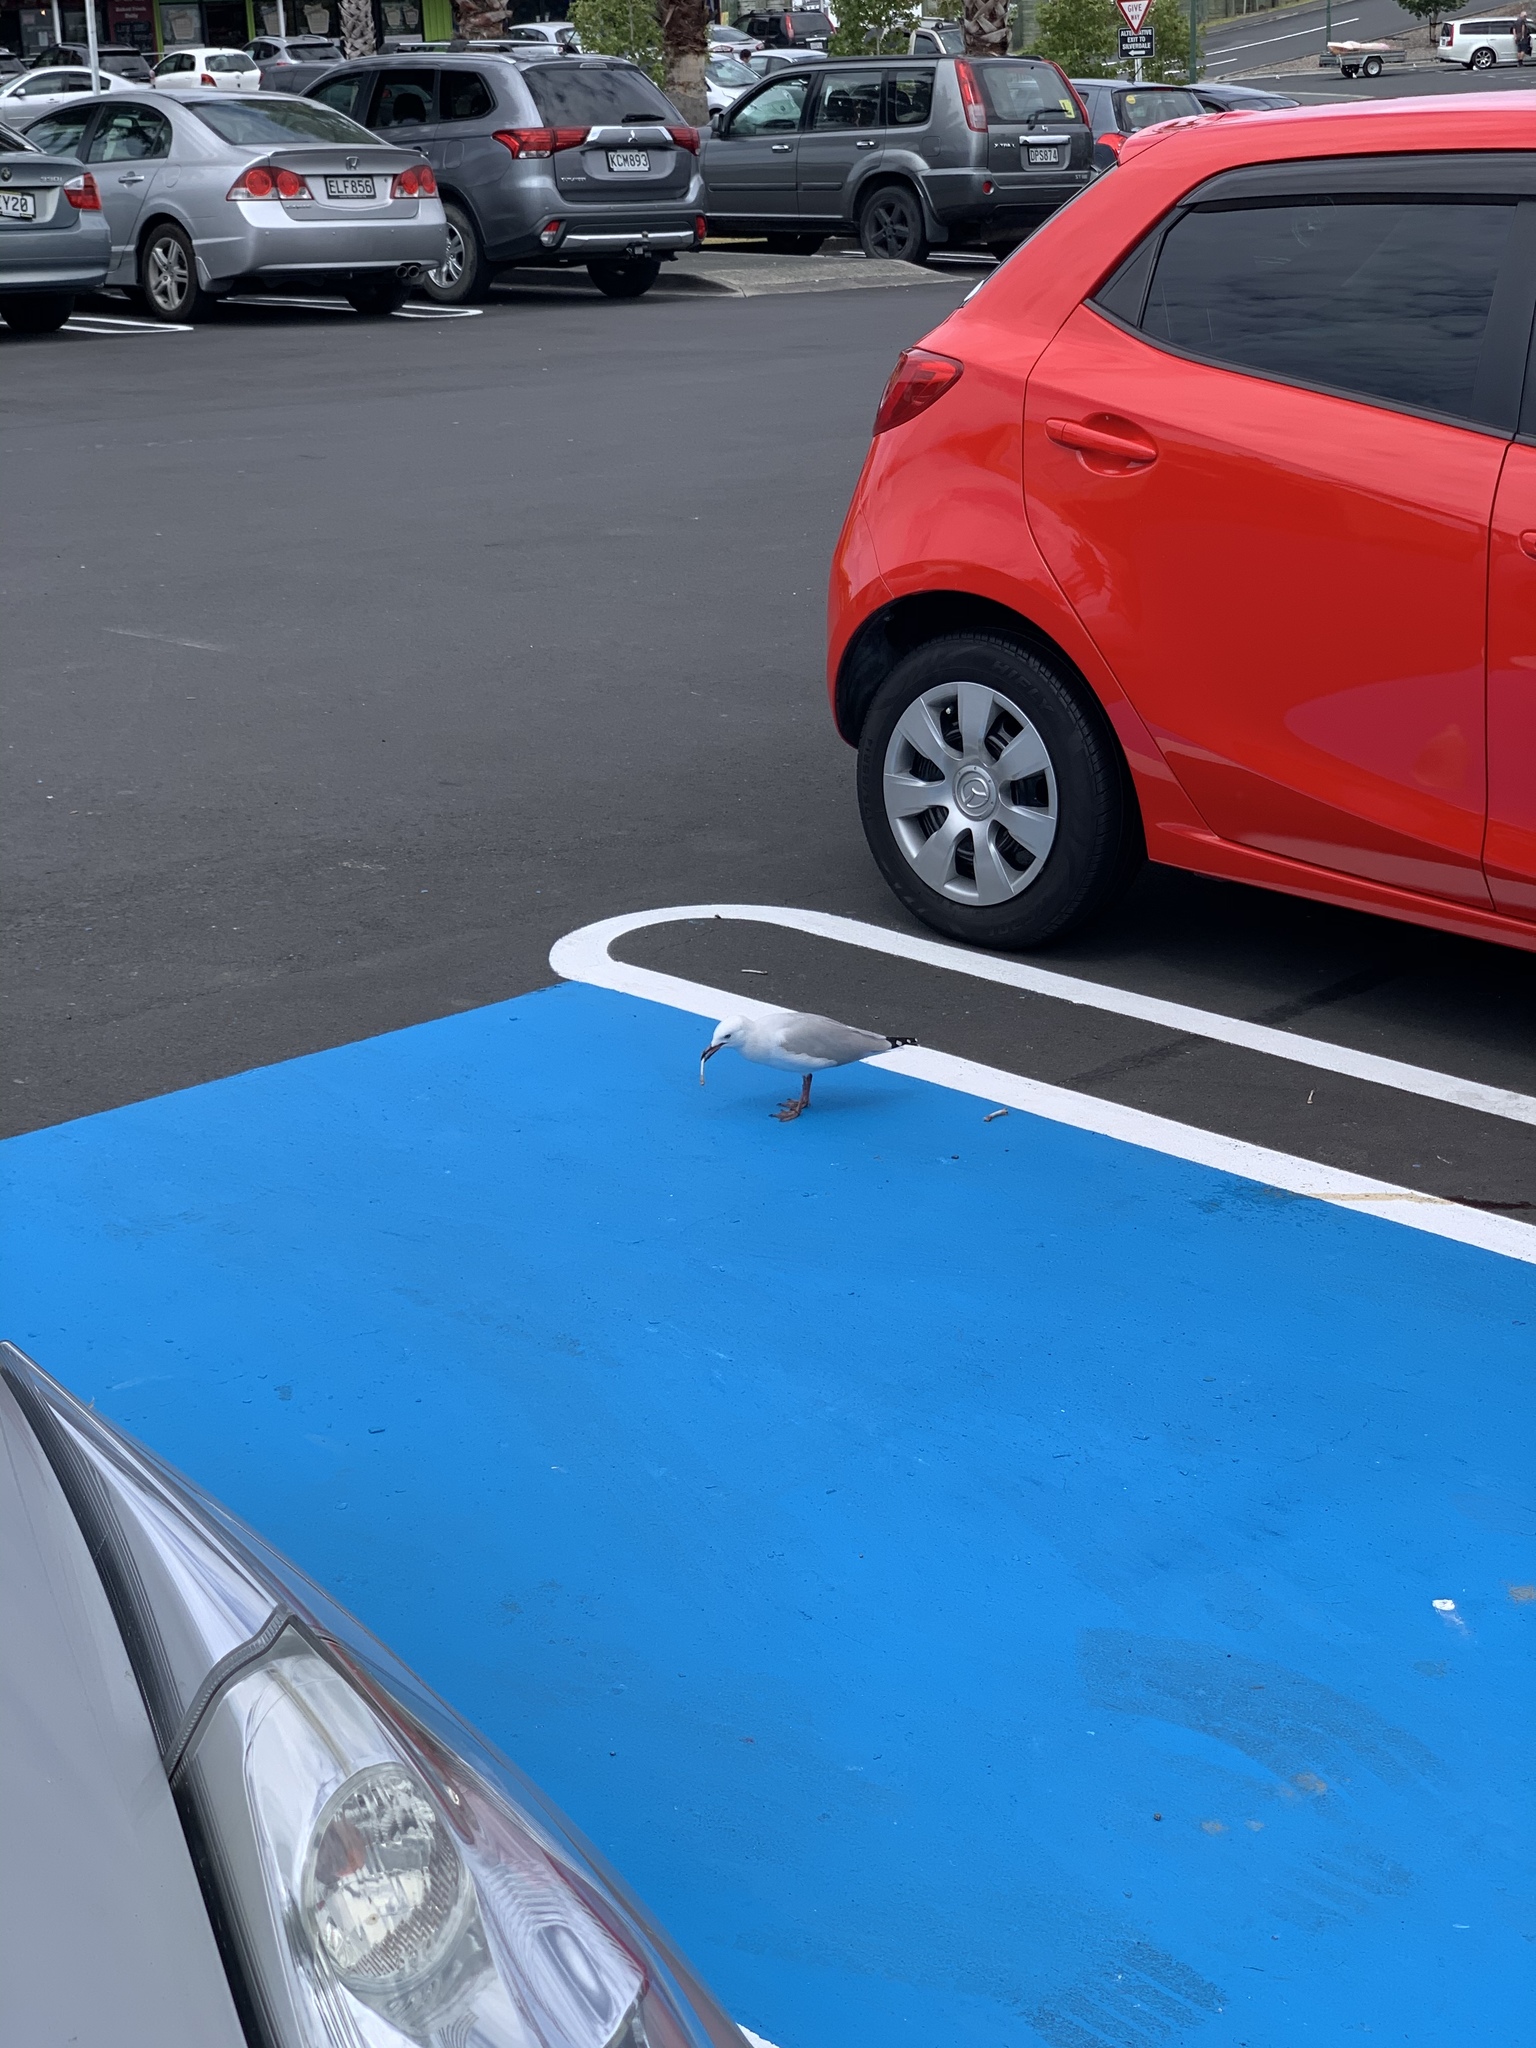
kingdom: Animalia
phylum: Chordata
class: Aves
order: Charadriiformes
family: Laridae
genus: Chroicocephalus
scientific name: Chroicocephalus novaehollandiae
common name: Silver gull
